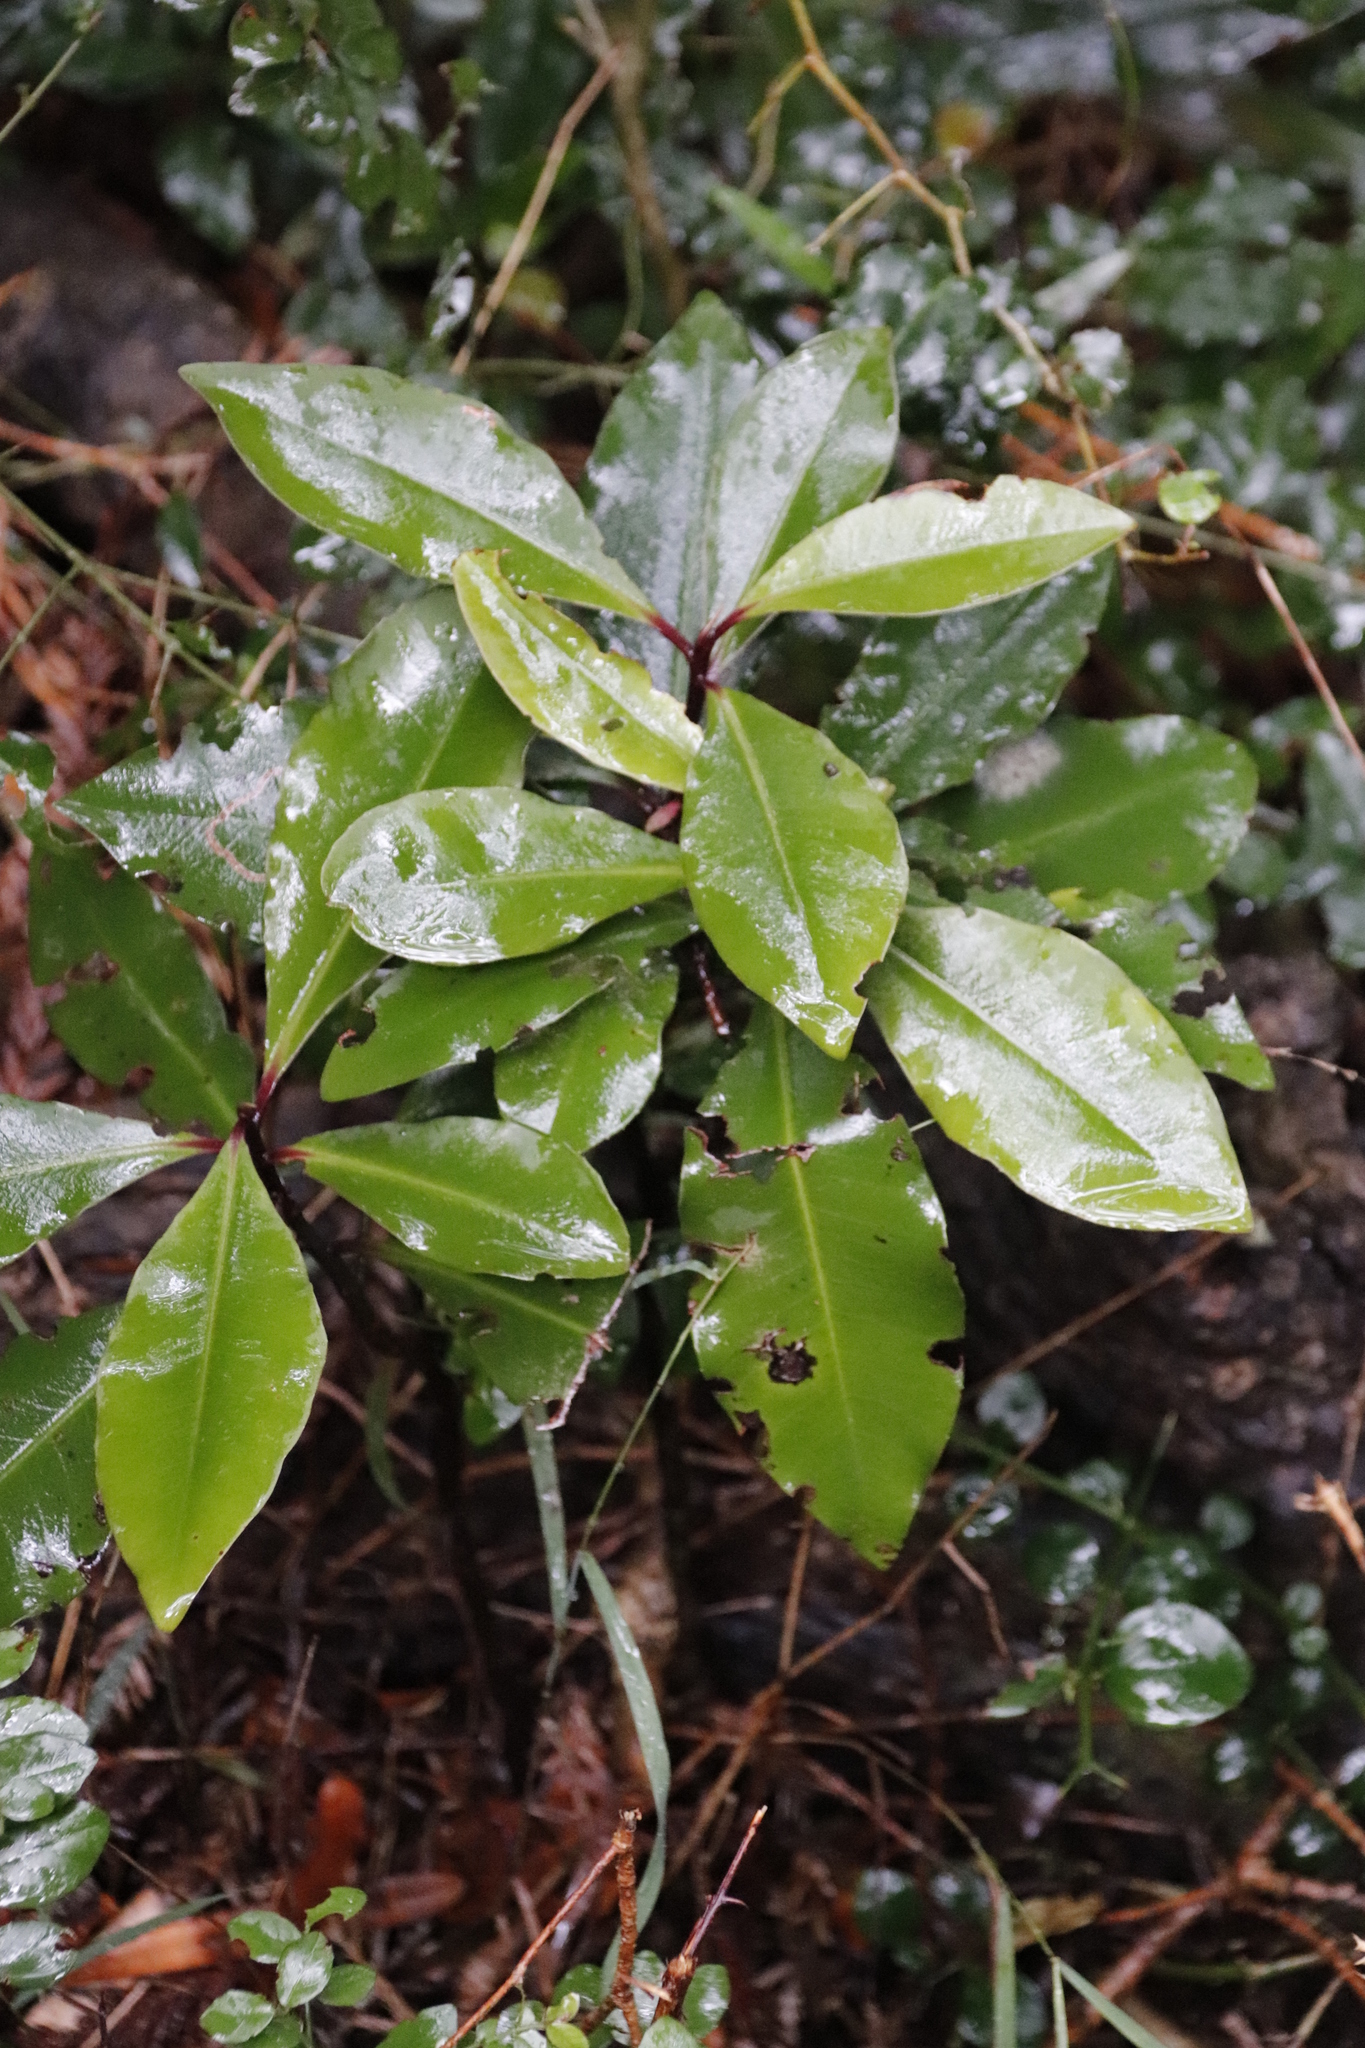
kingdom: Plantae
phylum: Tracheophyta
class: Magnoliopsida
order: Ericales
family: Primulaceae
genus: Myrsine
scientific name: Myrsine melanophloeos
